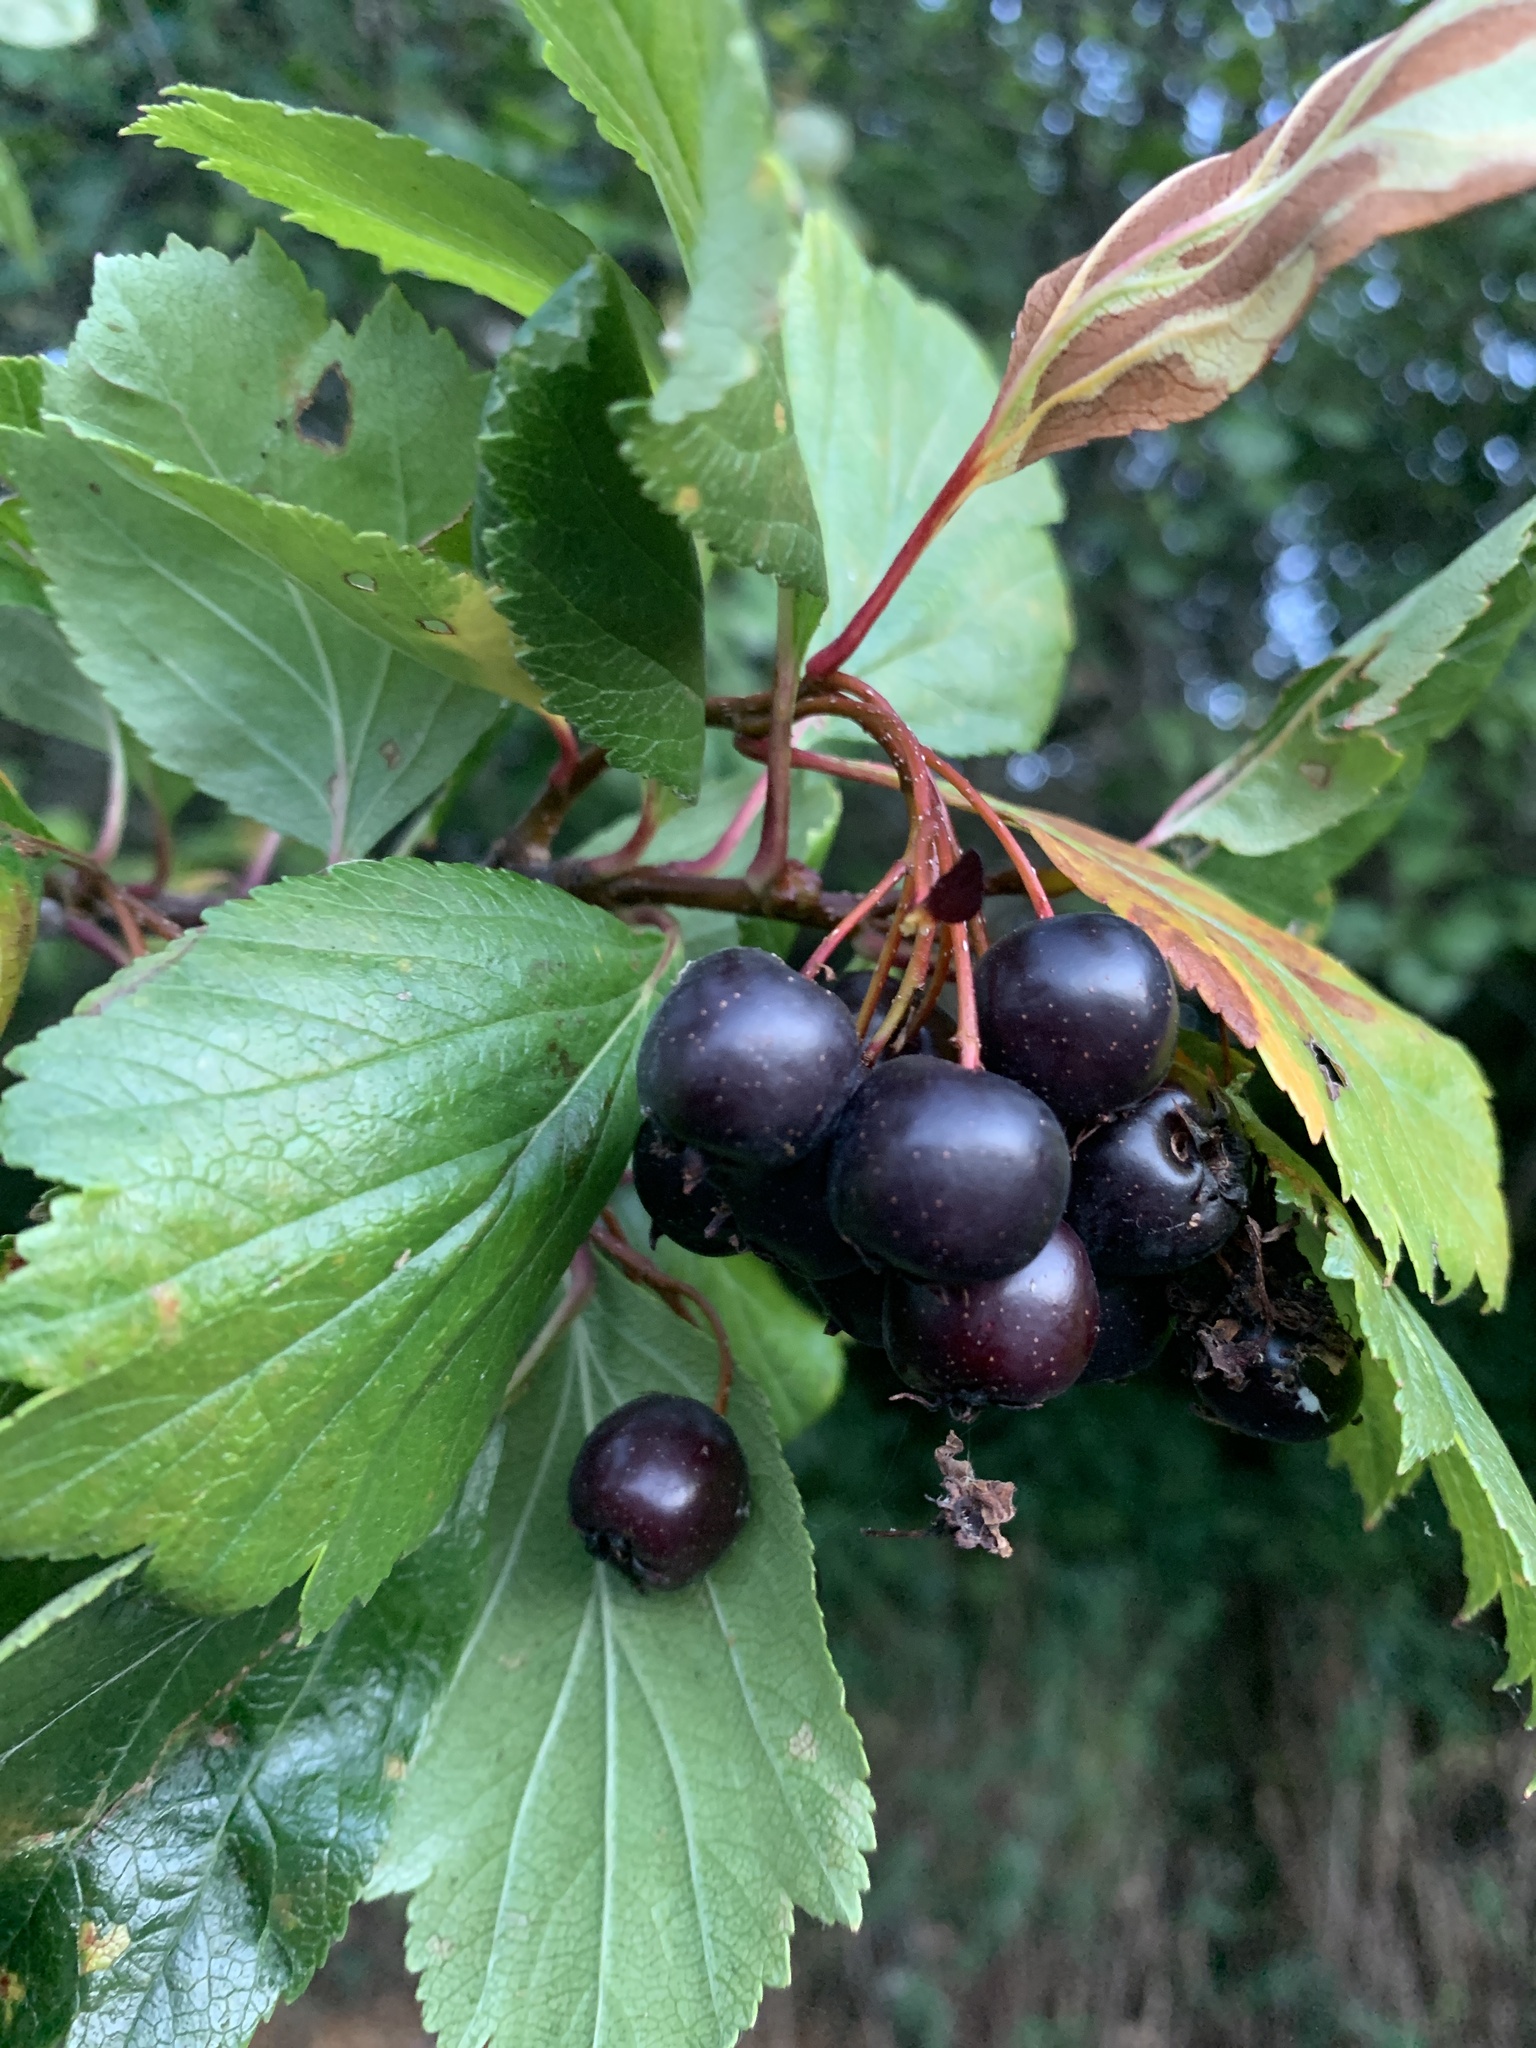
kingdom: Plantae
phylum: Tracheophyta
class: Magnoliopsida
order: Rosales
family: Rosaceae
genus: Crataegus
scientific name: Crataegus douglasii
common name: Black hawthorn
